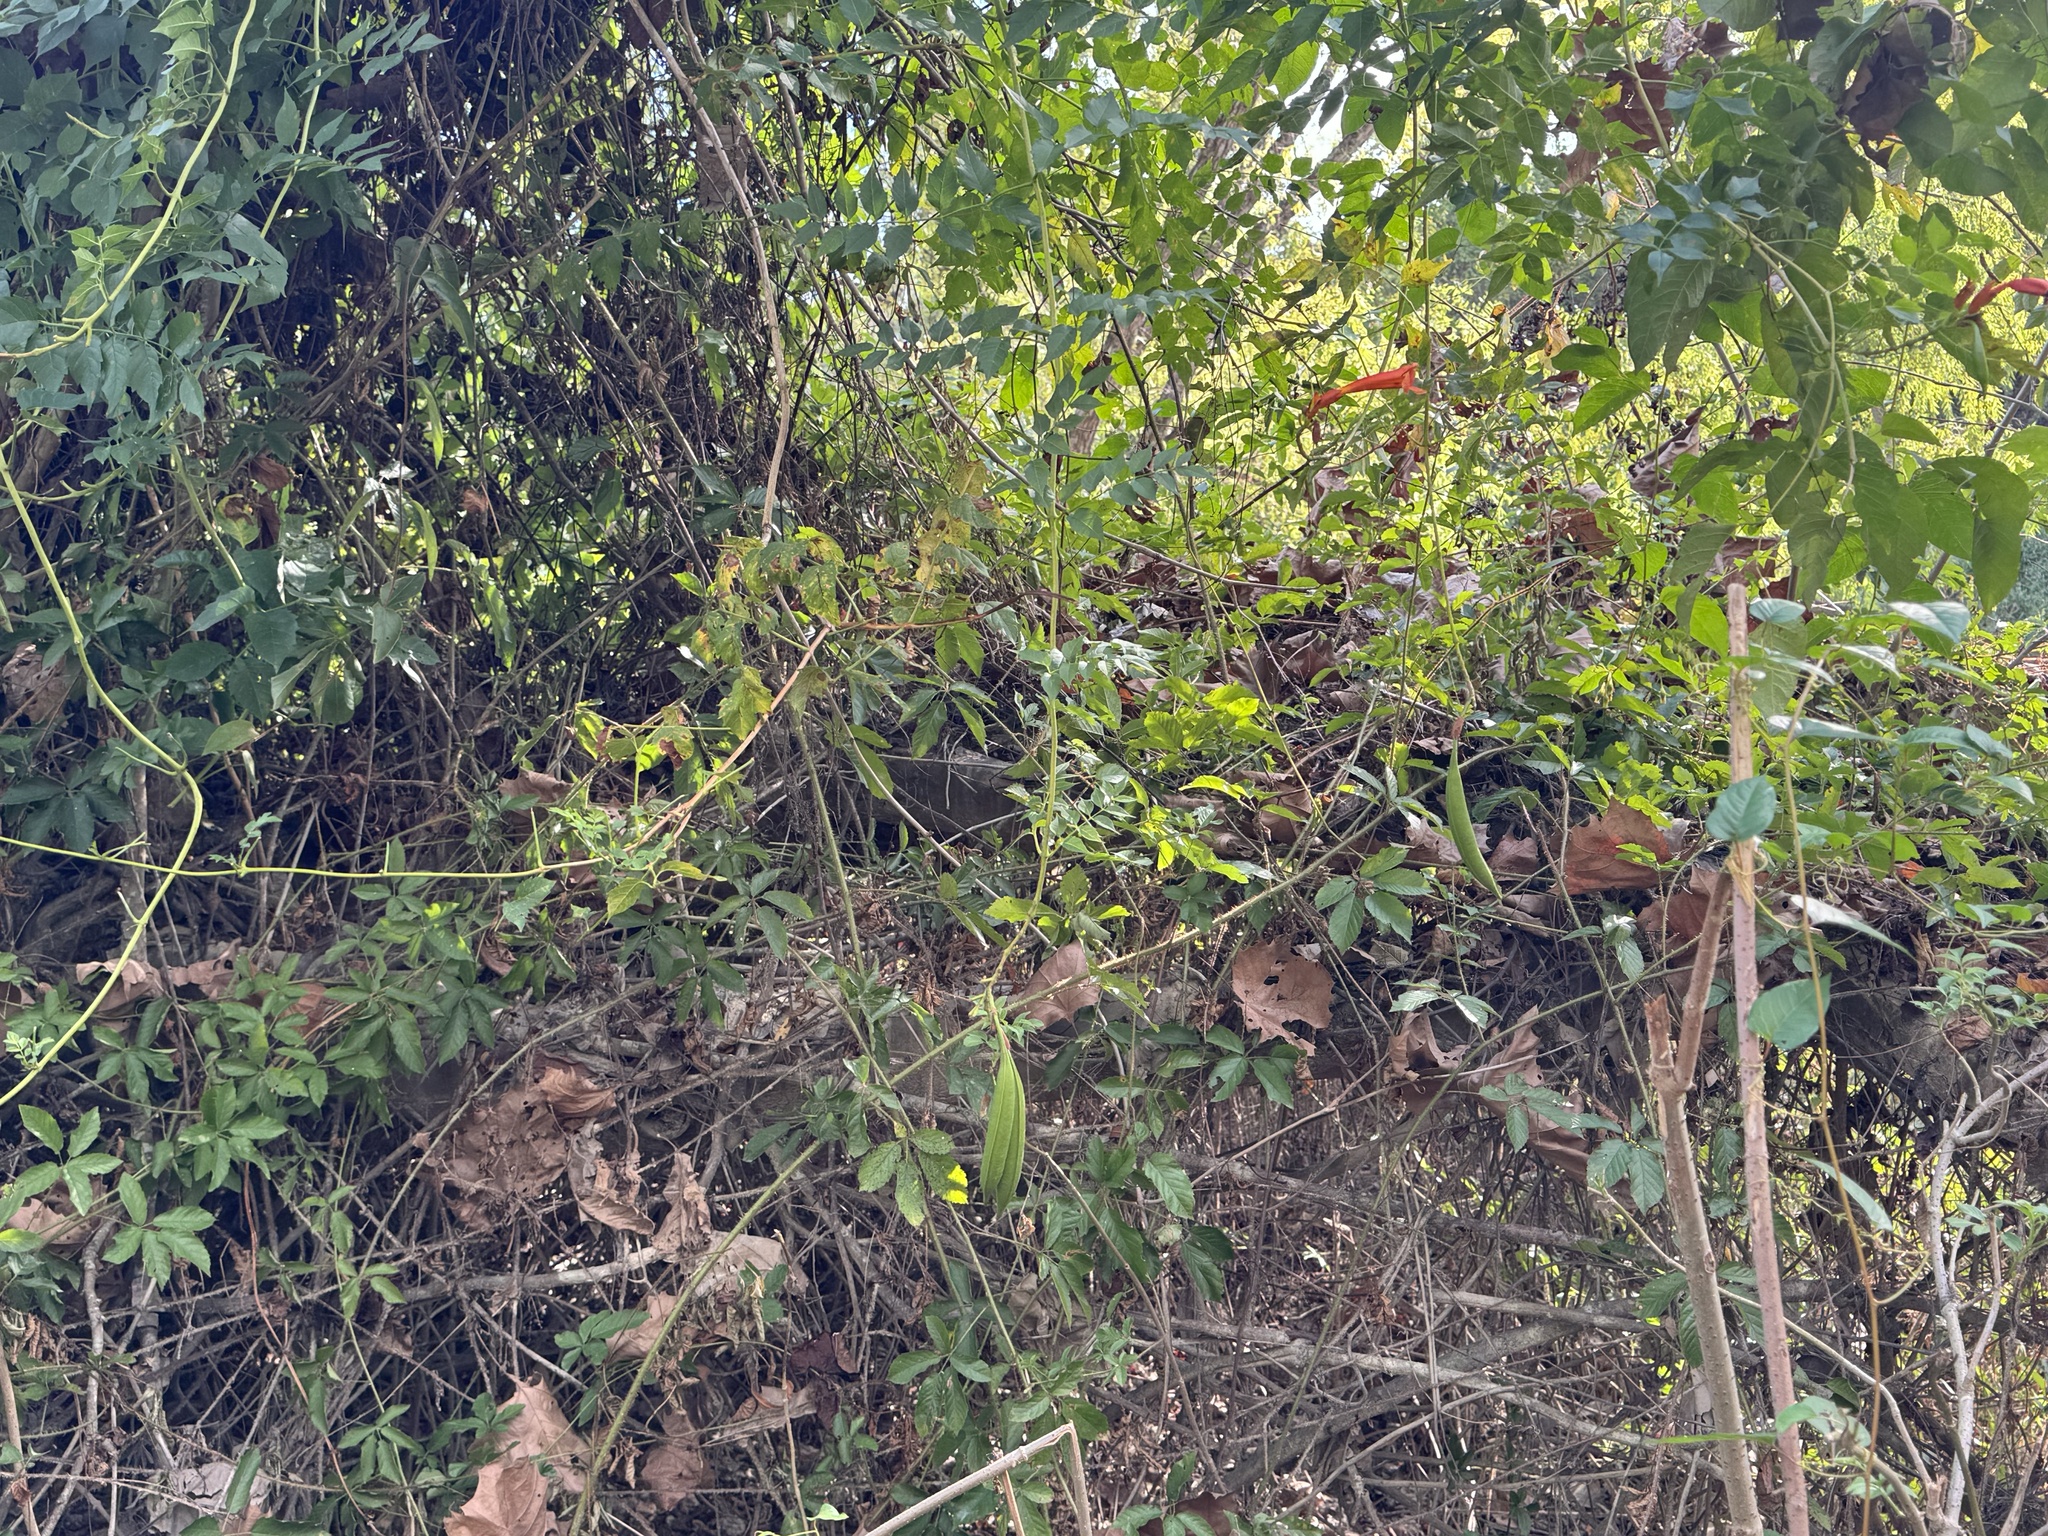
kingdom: Plantae
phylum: Tracheophyta
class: Magnoliopsida
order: Lamiales
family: Bignoniaceae
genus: Campsis
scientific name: Campsis radicans
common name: Trumpet-creeper
